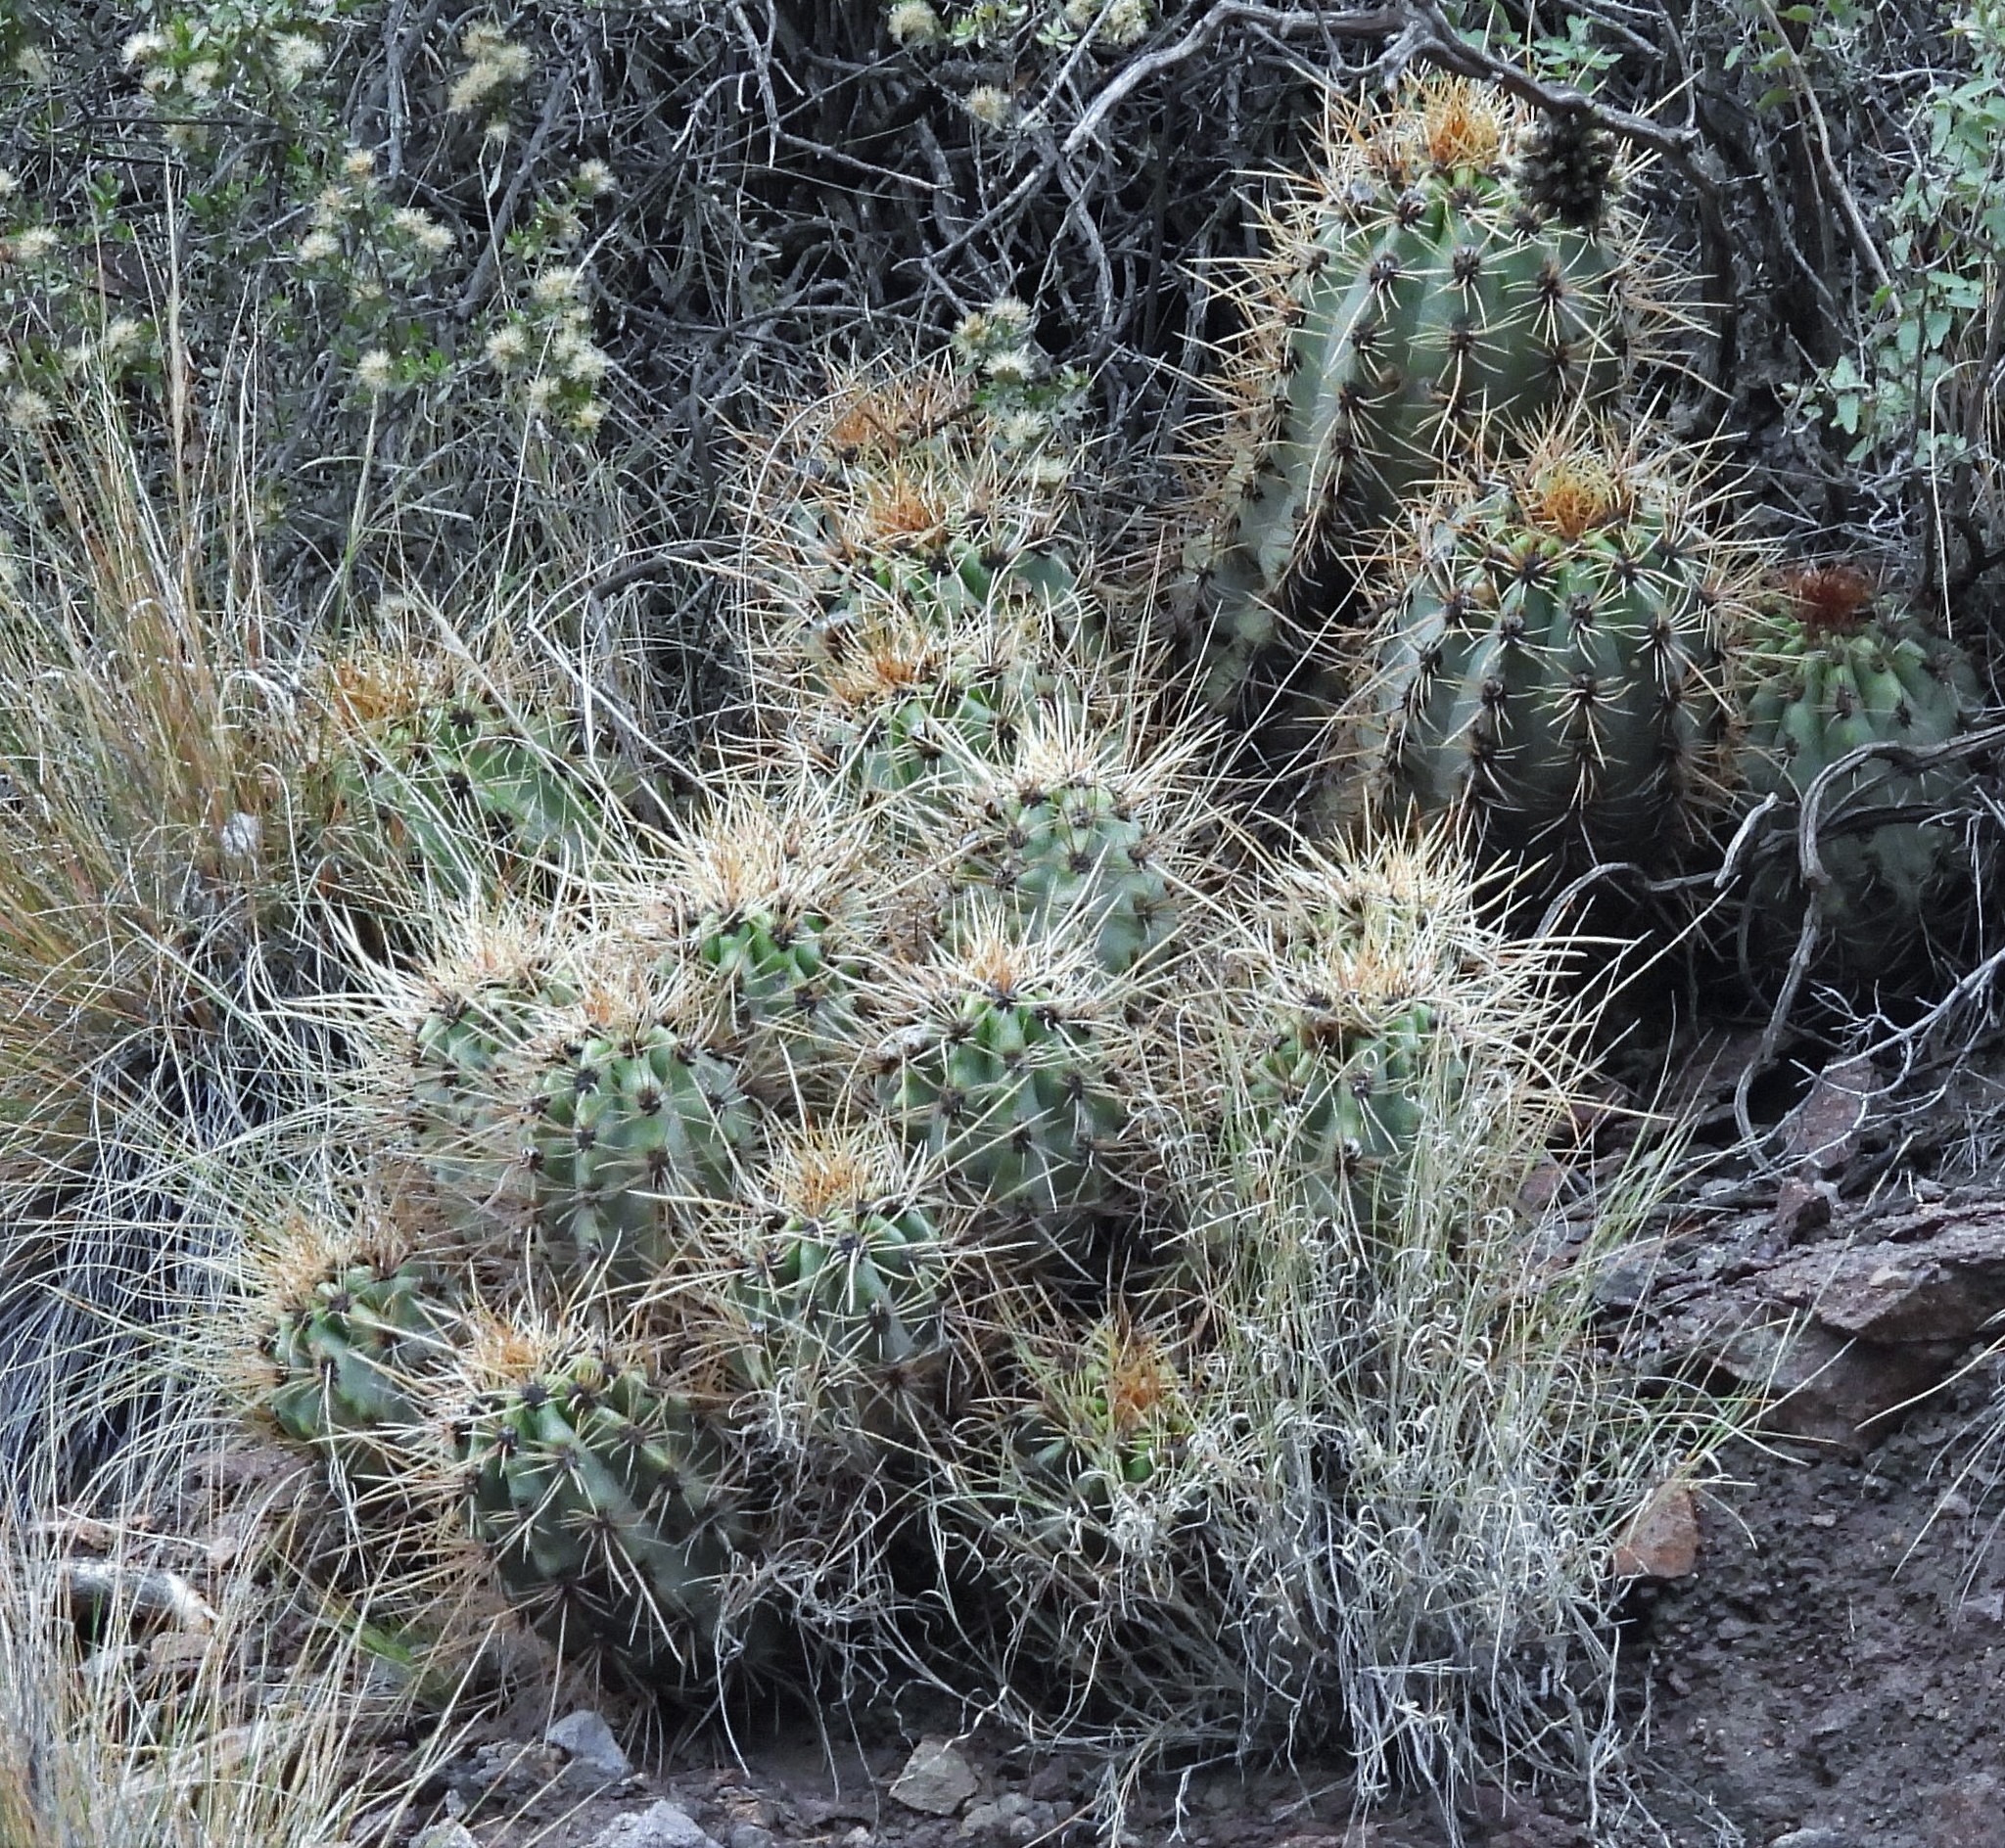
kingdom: Plantae
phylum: Tracheophyta
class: Magnoliopsida
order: Caryophyllales
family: Cactaceae
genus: Soehrensia
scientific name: Soehrensia candicans
